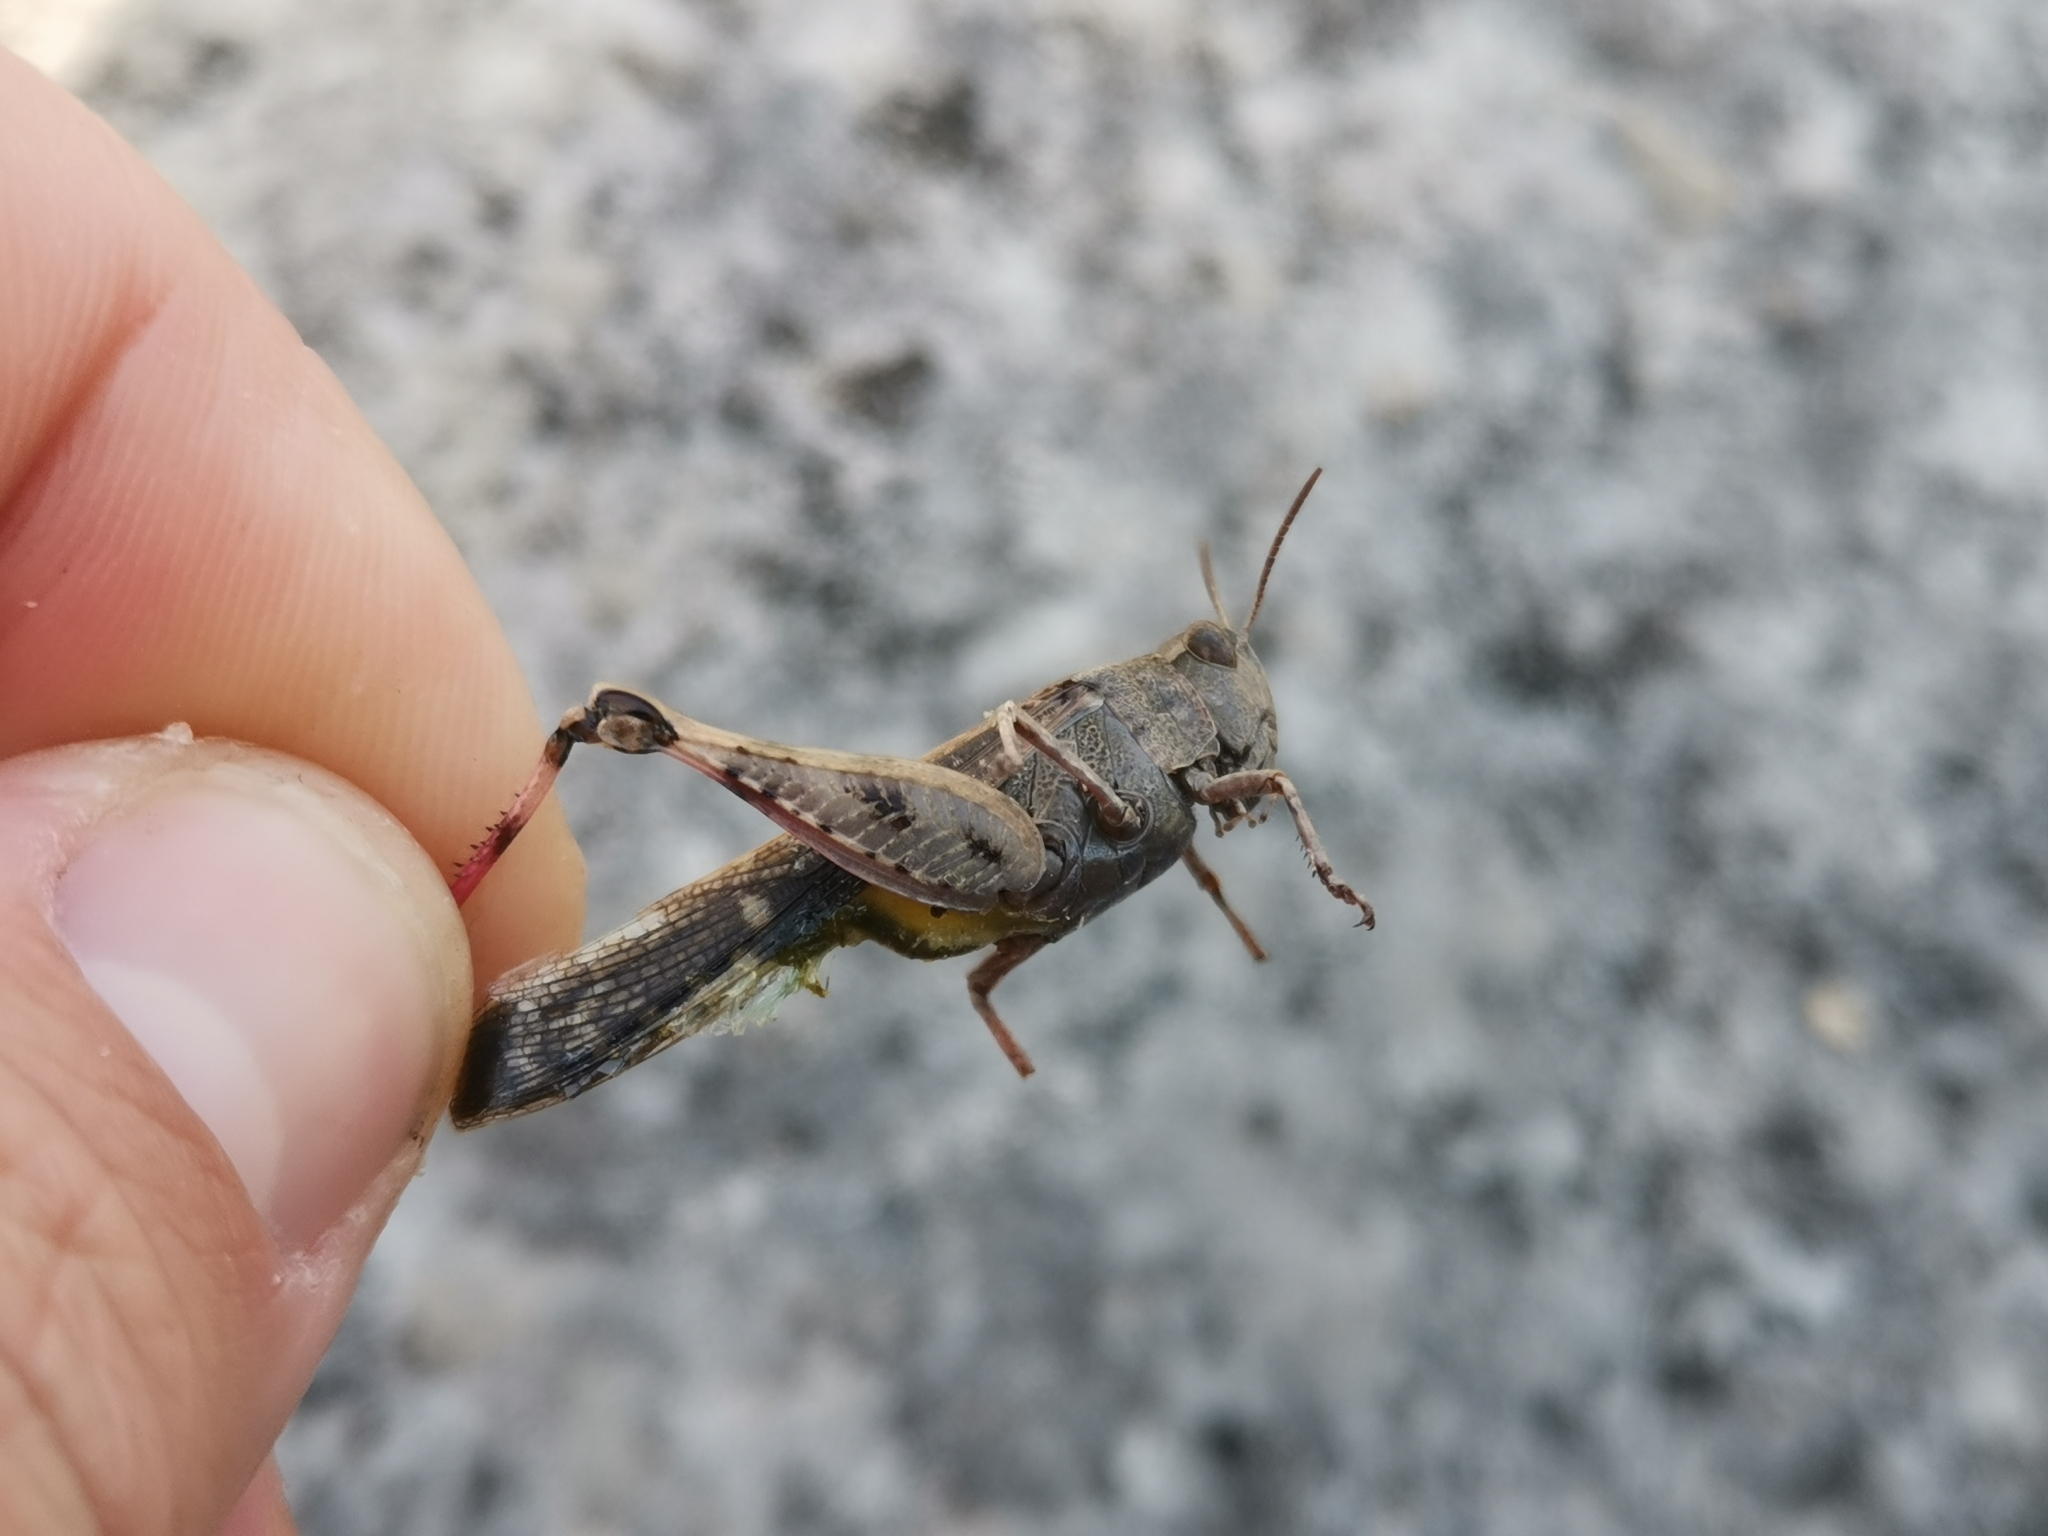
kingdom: Animalia
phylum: Arthropoda
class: Insecta
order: Orthoptera
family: Acrididae
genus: Aiolopus
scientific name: Aiolopus strepens
